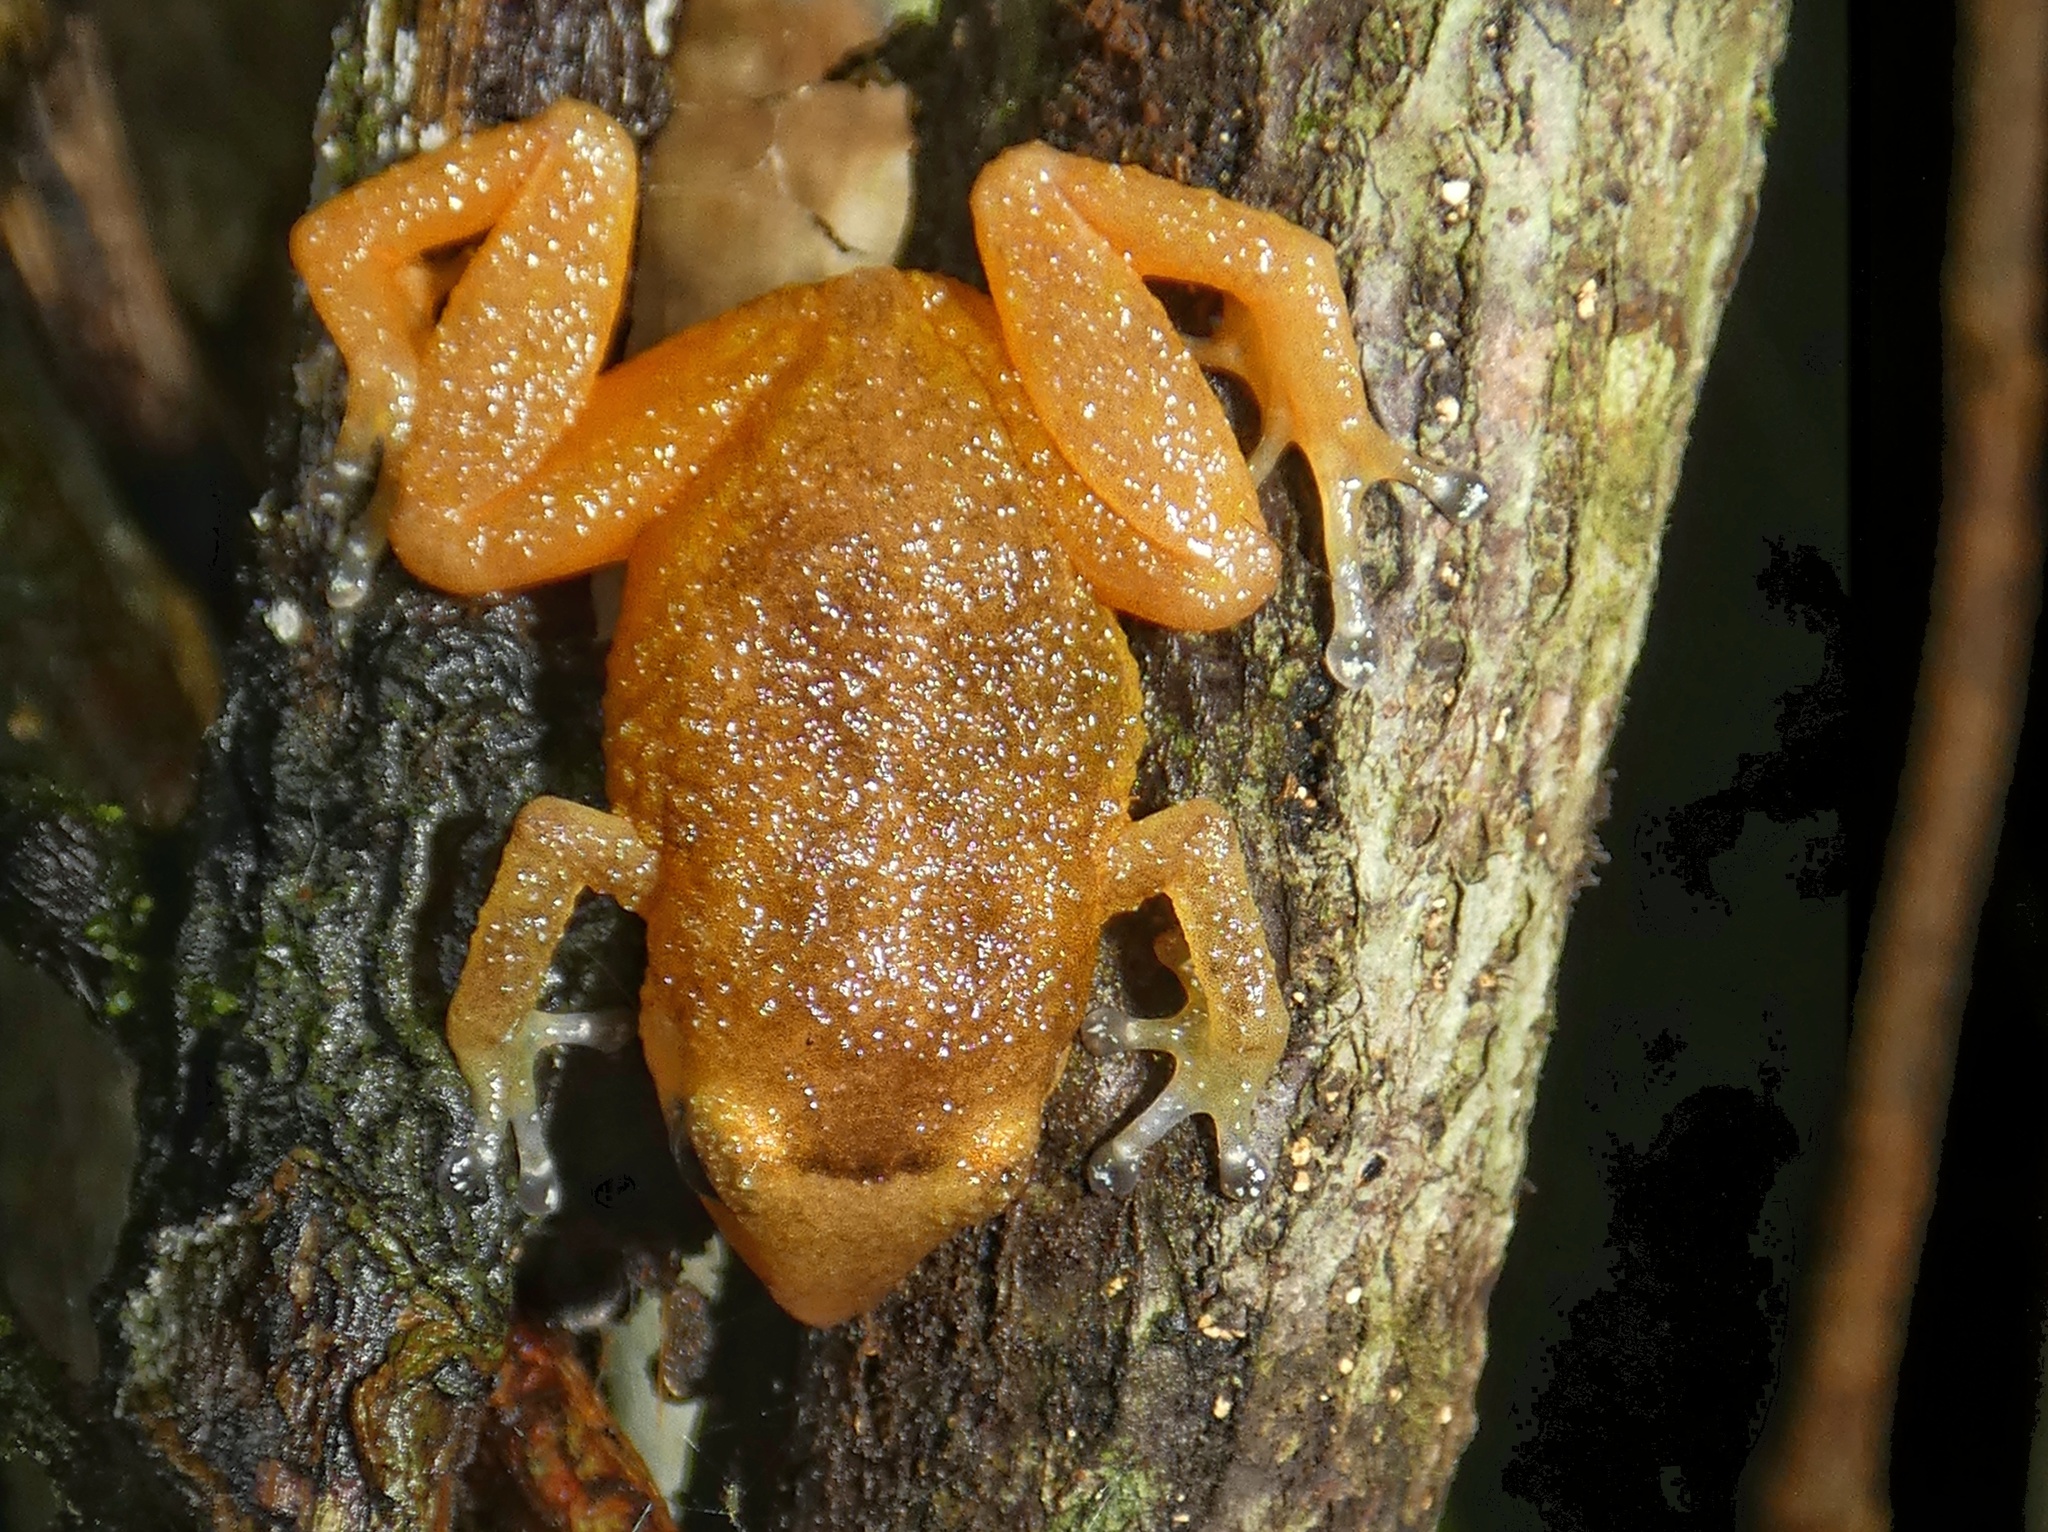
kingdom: Animalia
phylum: Chordata
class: Amphibia
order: Anura
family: Eleutherodactylidae
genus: Diasporus
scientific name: Diasporus citrinobapheus
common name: Yellow dink frog
